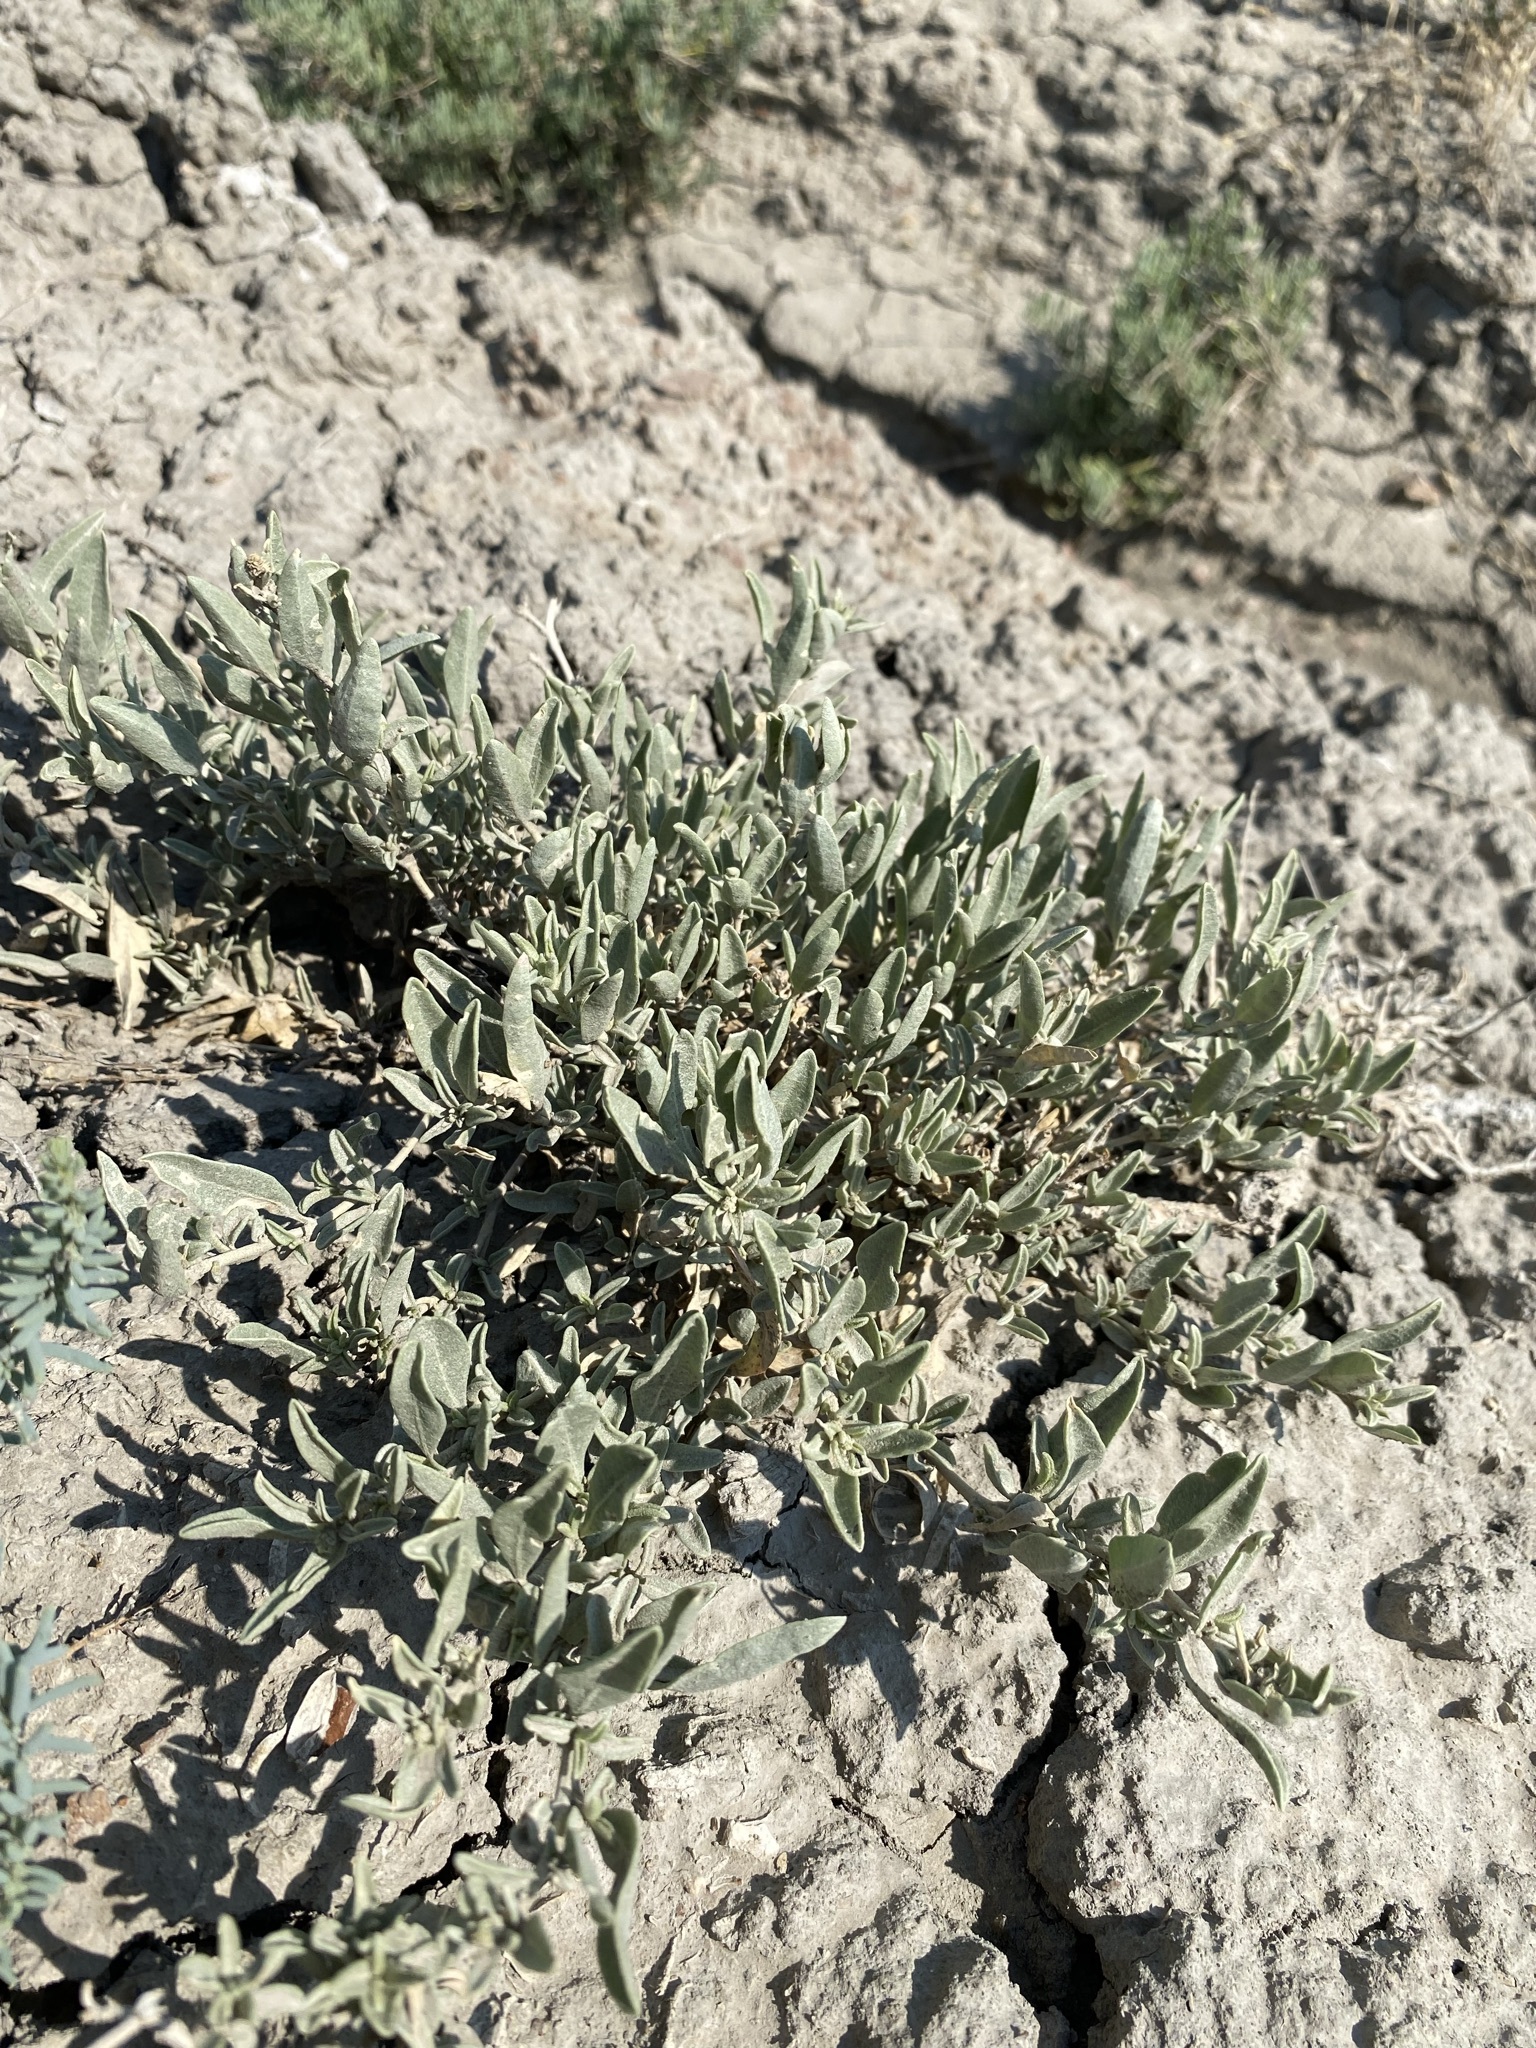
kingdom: Plantae
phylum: Tracheophyta
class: Magnoliopsida
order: Caryophyllales
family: Amaranthaceae
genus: Atriplex
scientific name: Atriplex gardneri
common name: Gardner's orache
